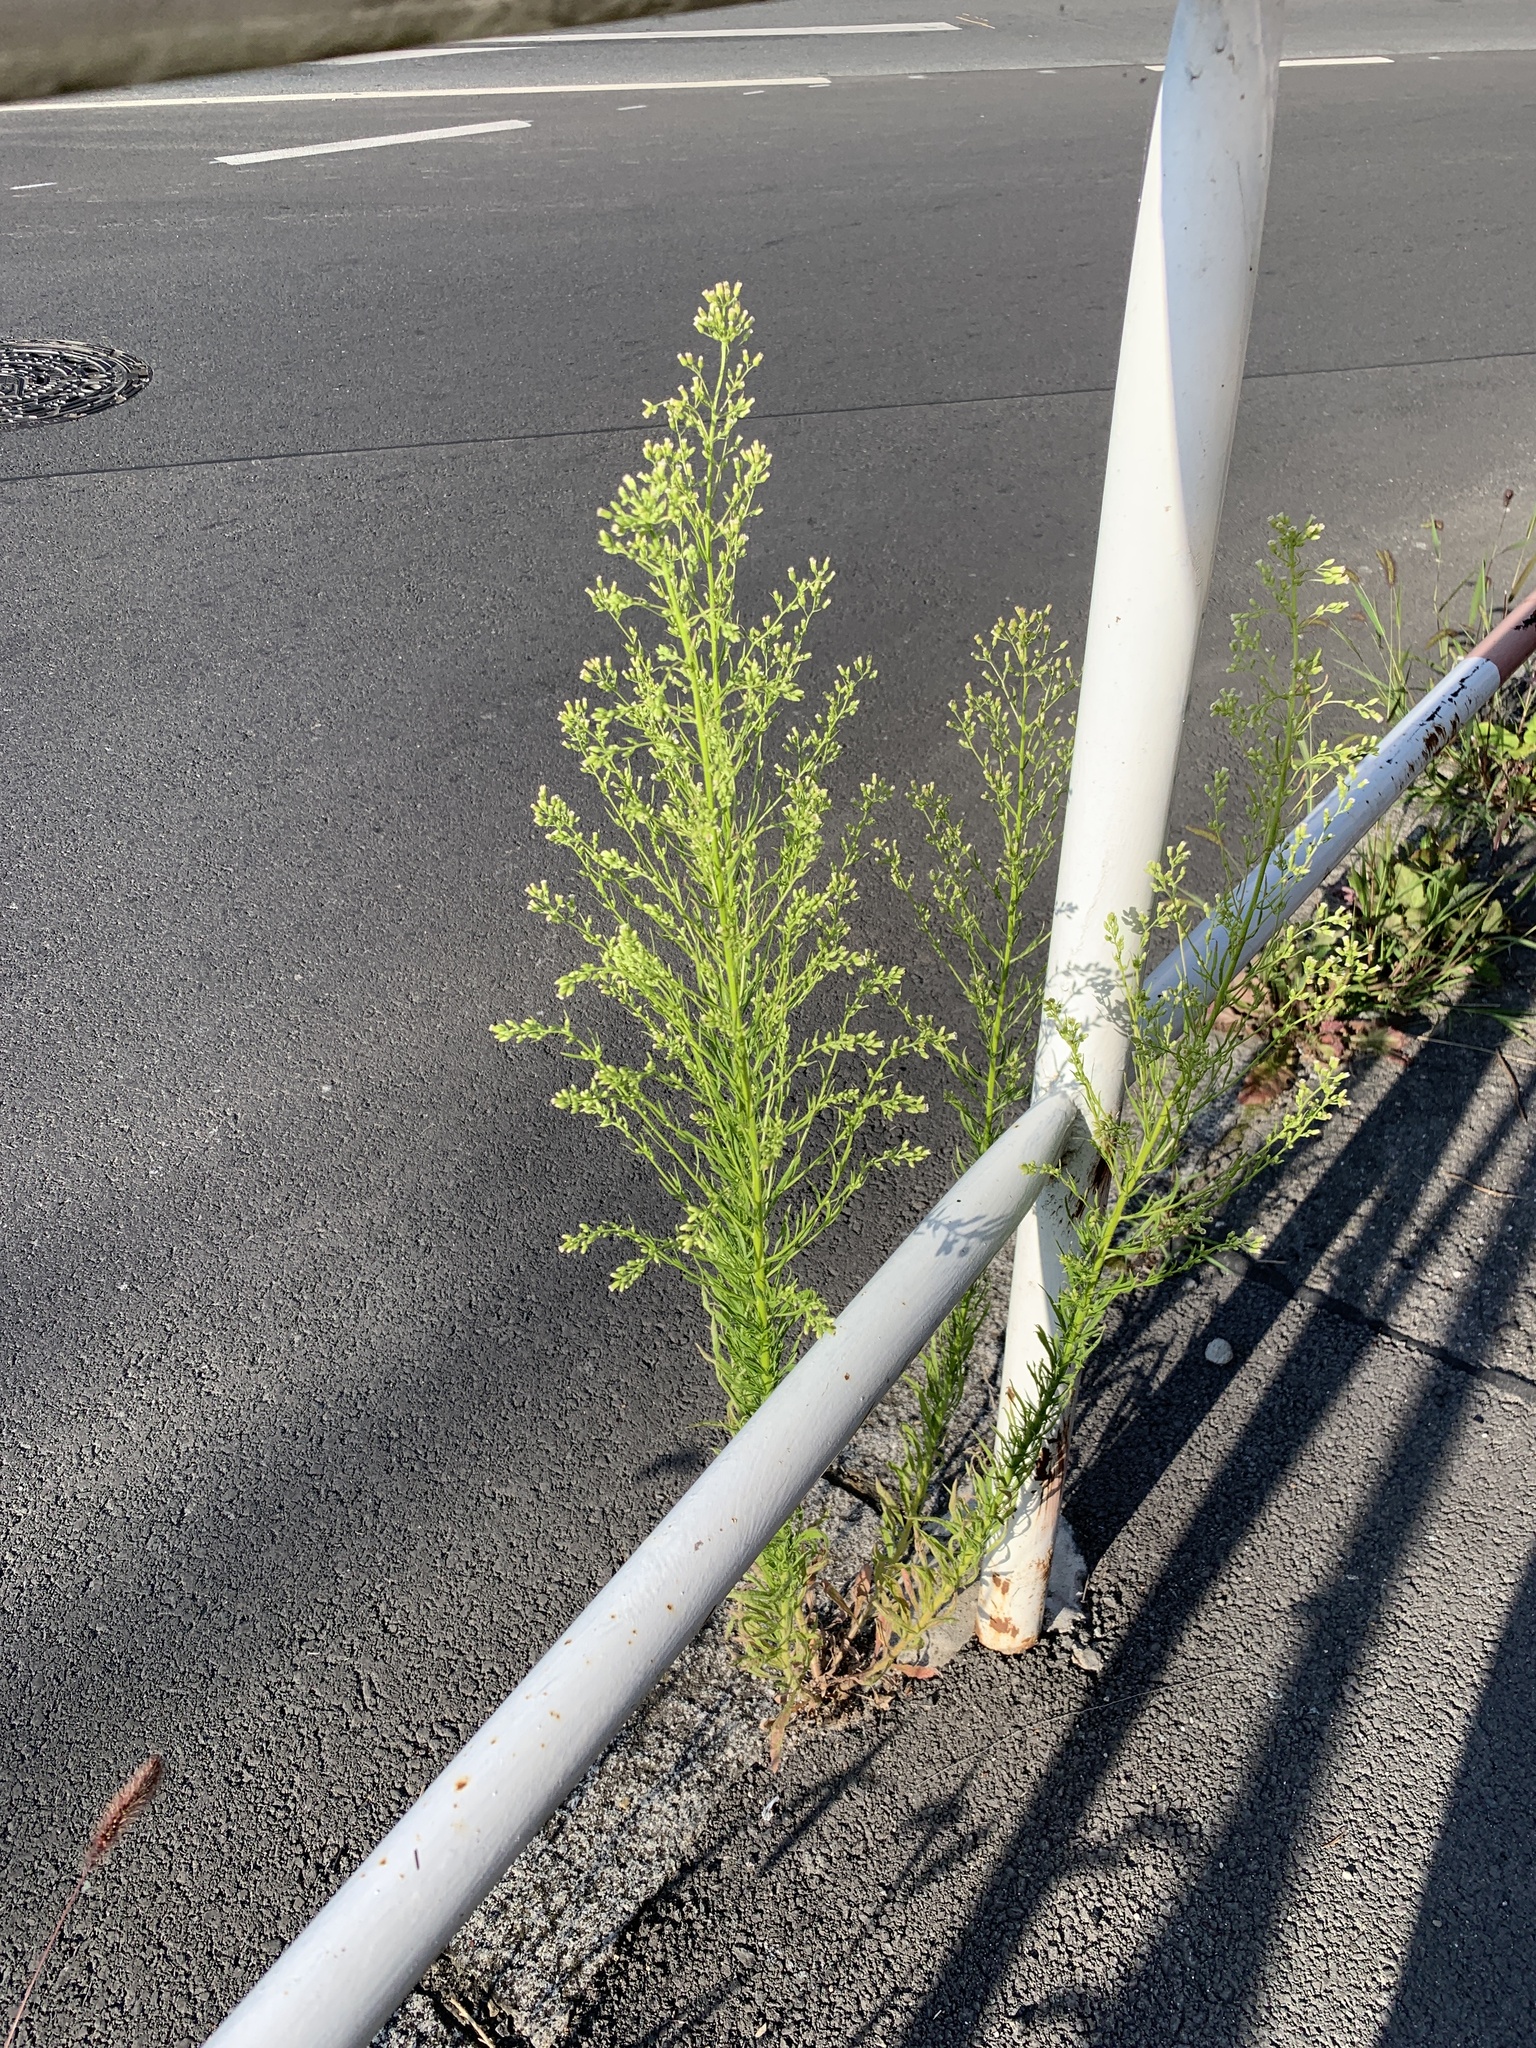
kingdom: Plantae
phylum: Tracheophyta
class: Magnoliopsida
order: Asterales
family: Asteraceae
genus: Erigeron
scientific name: Erigeron canadensis
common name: Canadian fleabane
